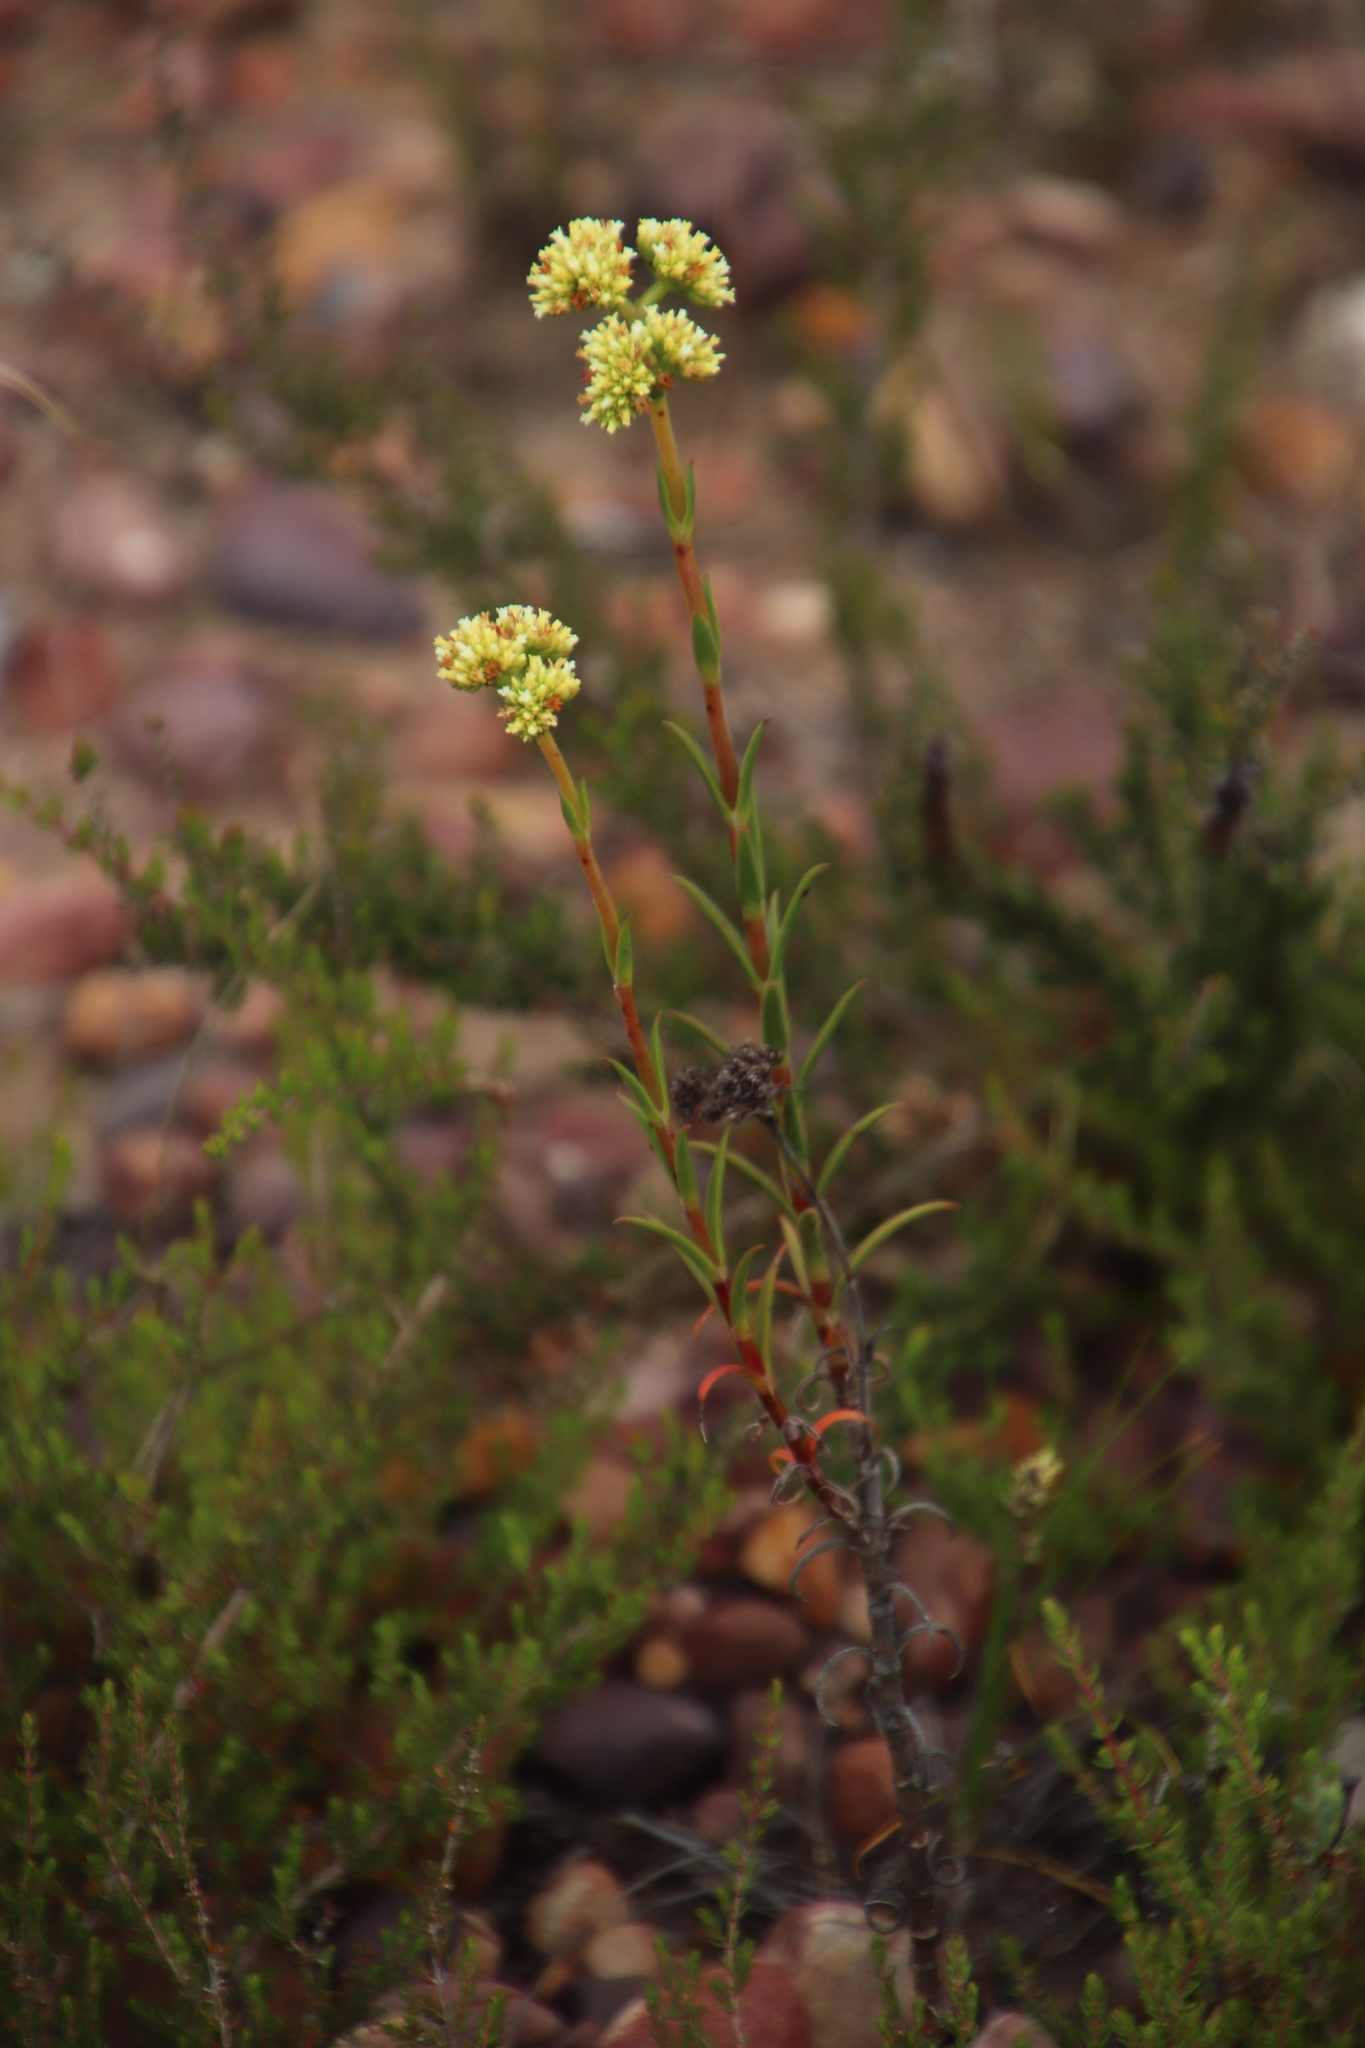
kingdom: Plantae
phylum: Tracheophyta
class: Magnoliopsida
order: Saxifragales
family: Crassulaceae
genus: Crassula
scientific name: Crassula subulata
